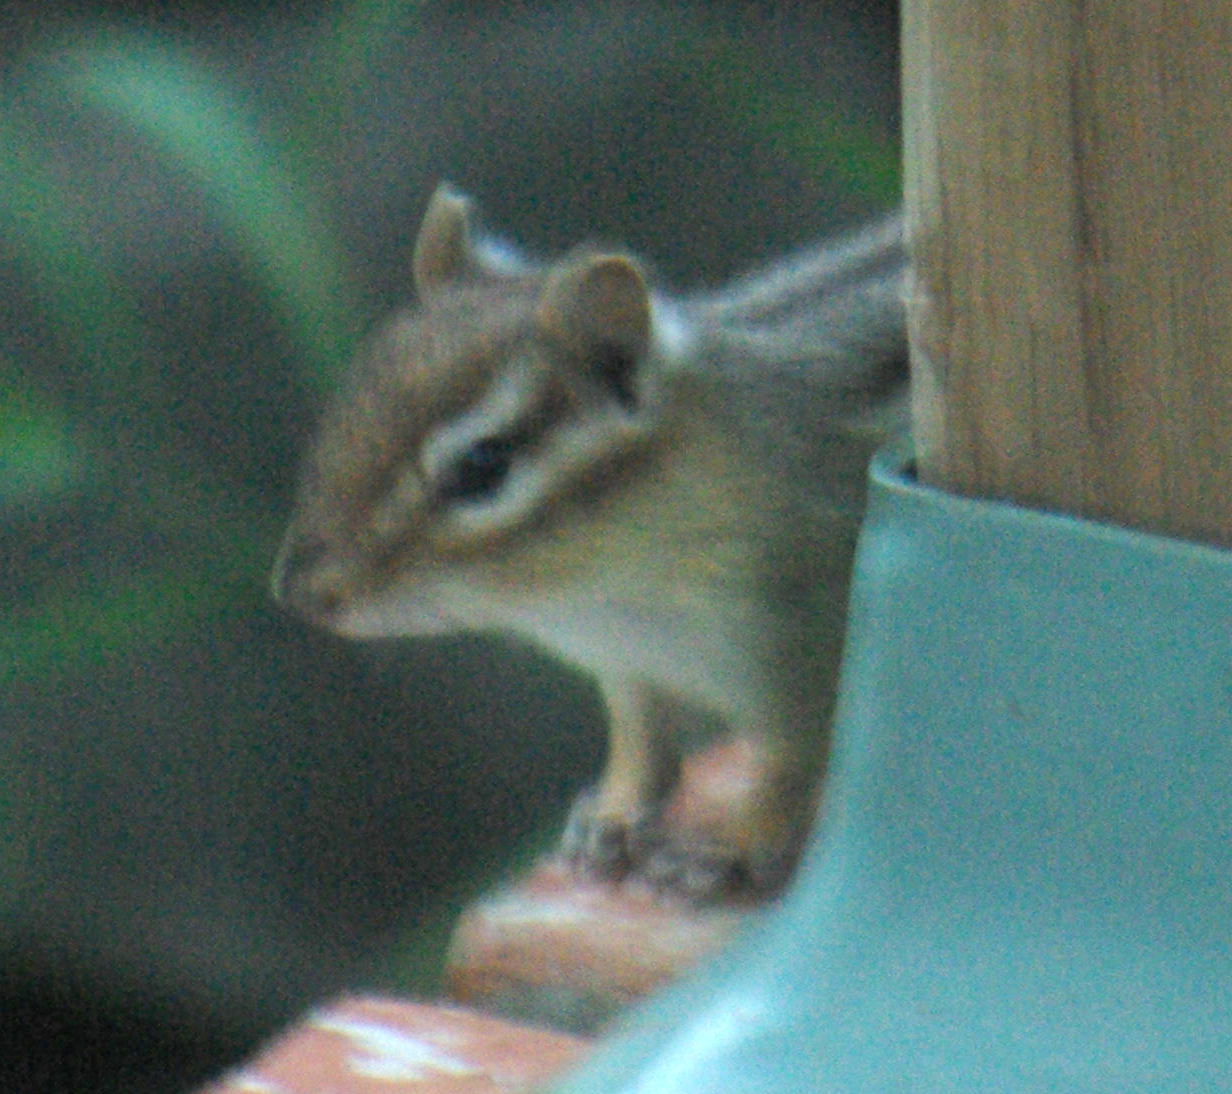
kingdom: Animalia
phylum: Chordata
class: Mammalia
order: Rodentia
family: Sciuridae
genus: Tamias
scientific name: Tamias striatus
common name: Eastern chipmunk
